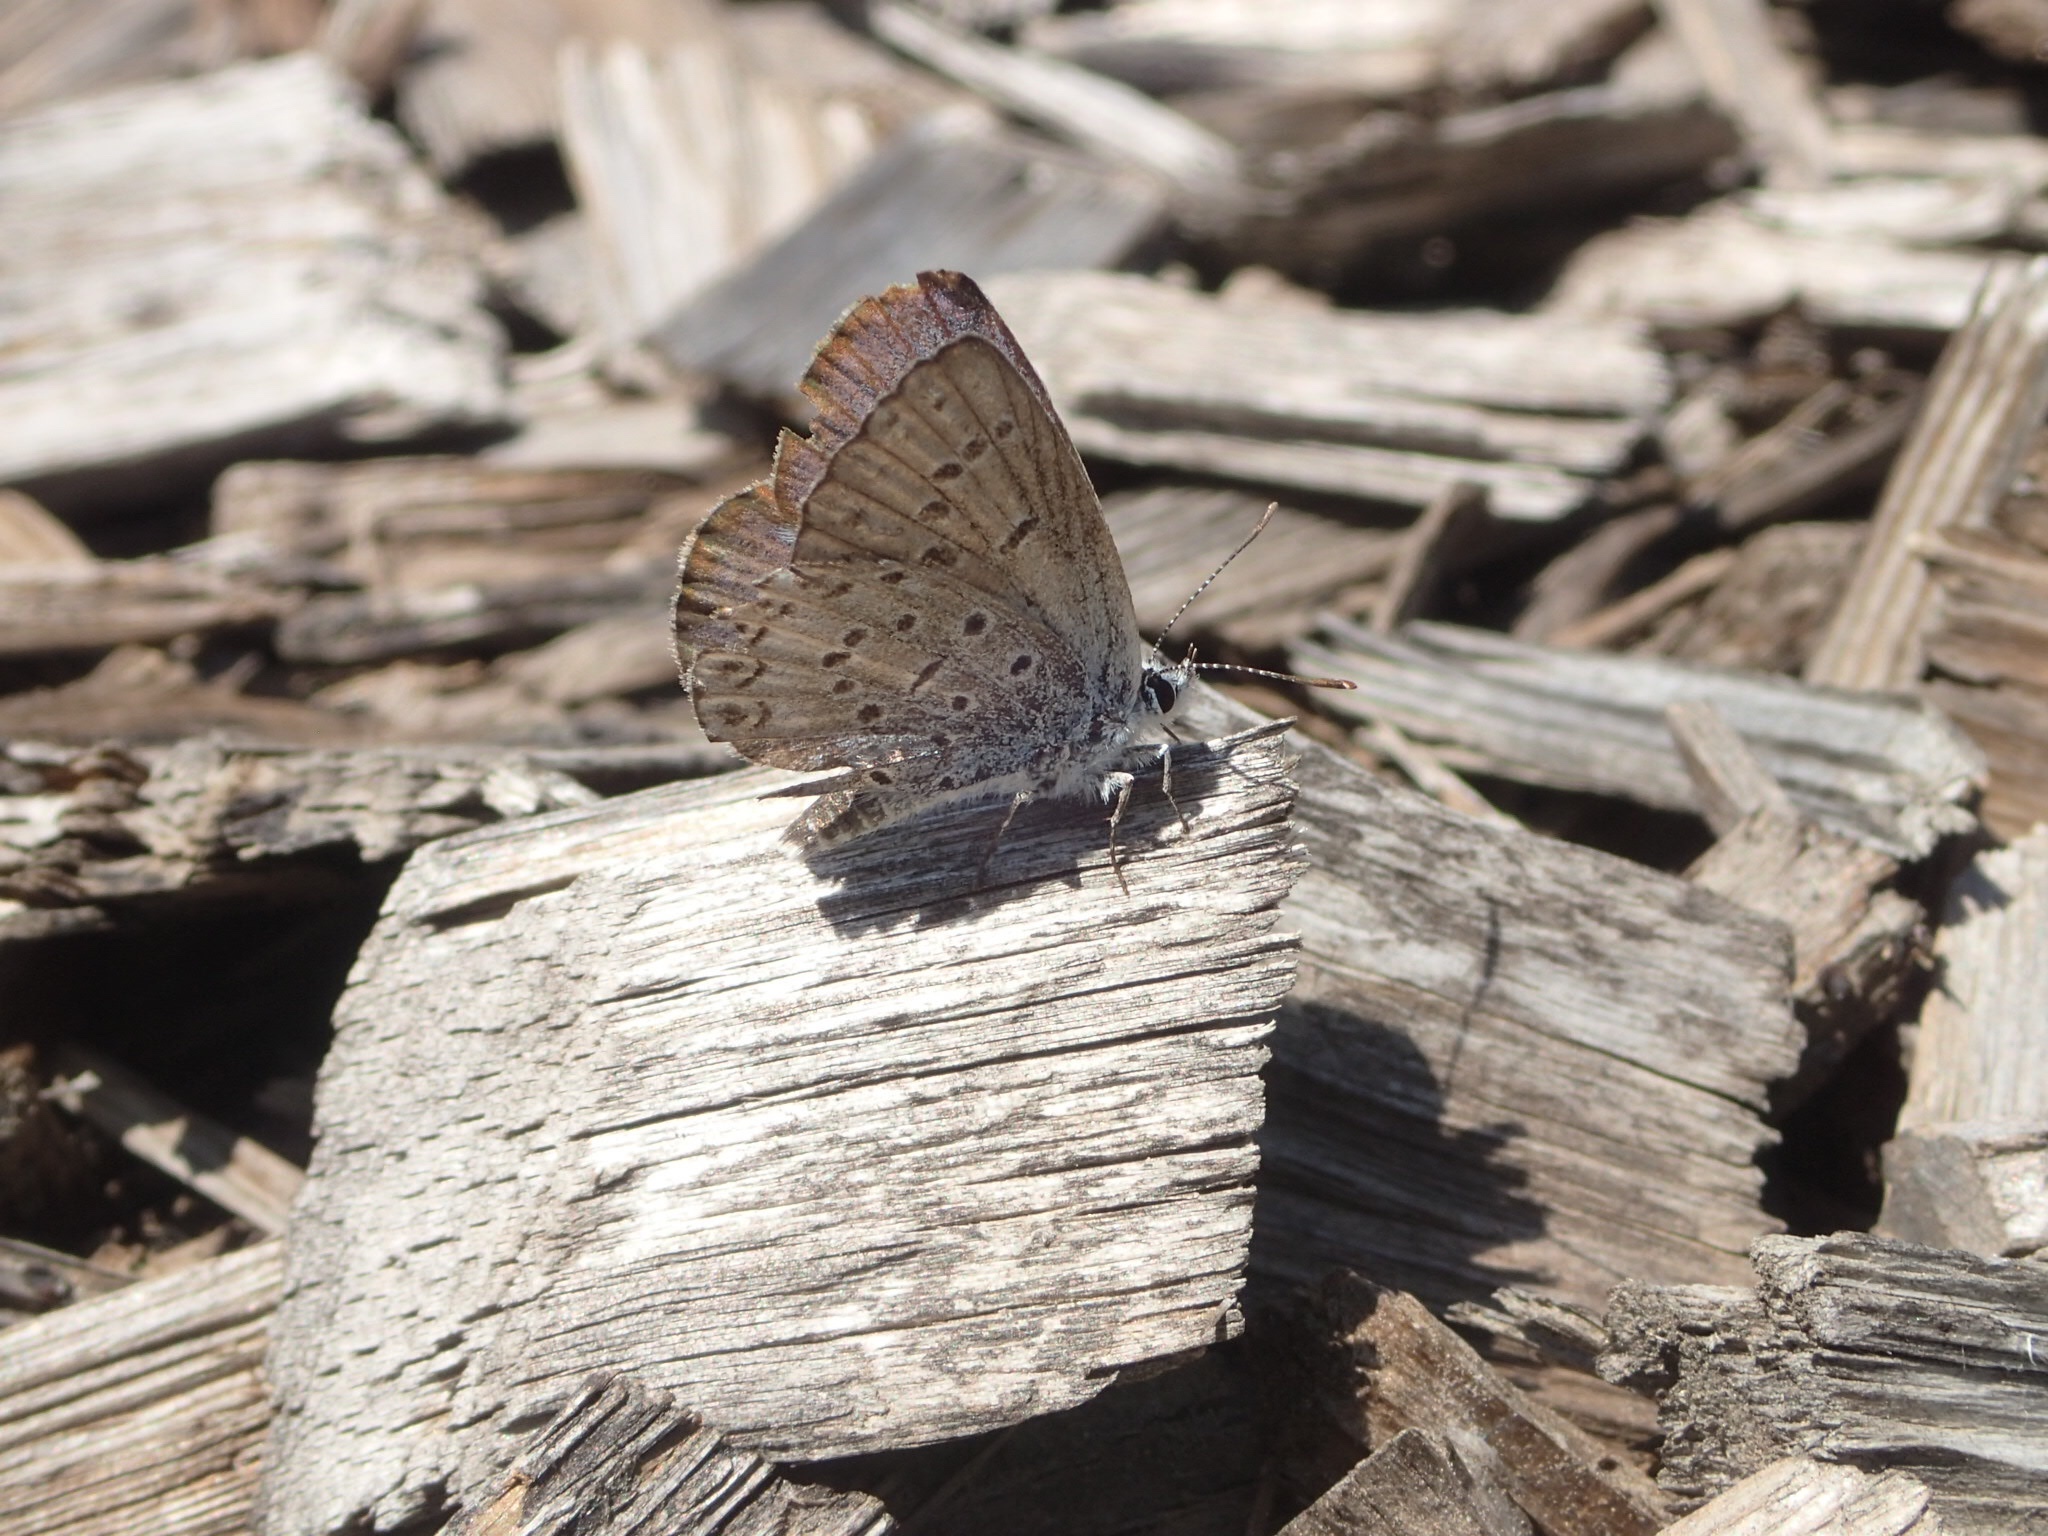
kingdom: Animalia
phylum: Arthropoda
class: Insecta
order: Lepidoptera
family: Lycaenidae
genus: Celastrina
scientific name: Celastrina lucia
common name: Lucia azure
